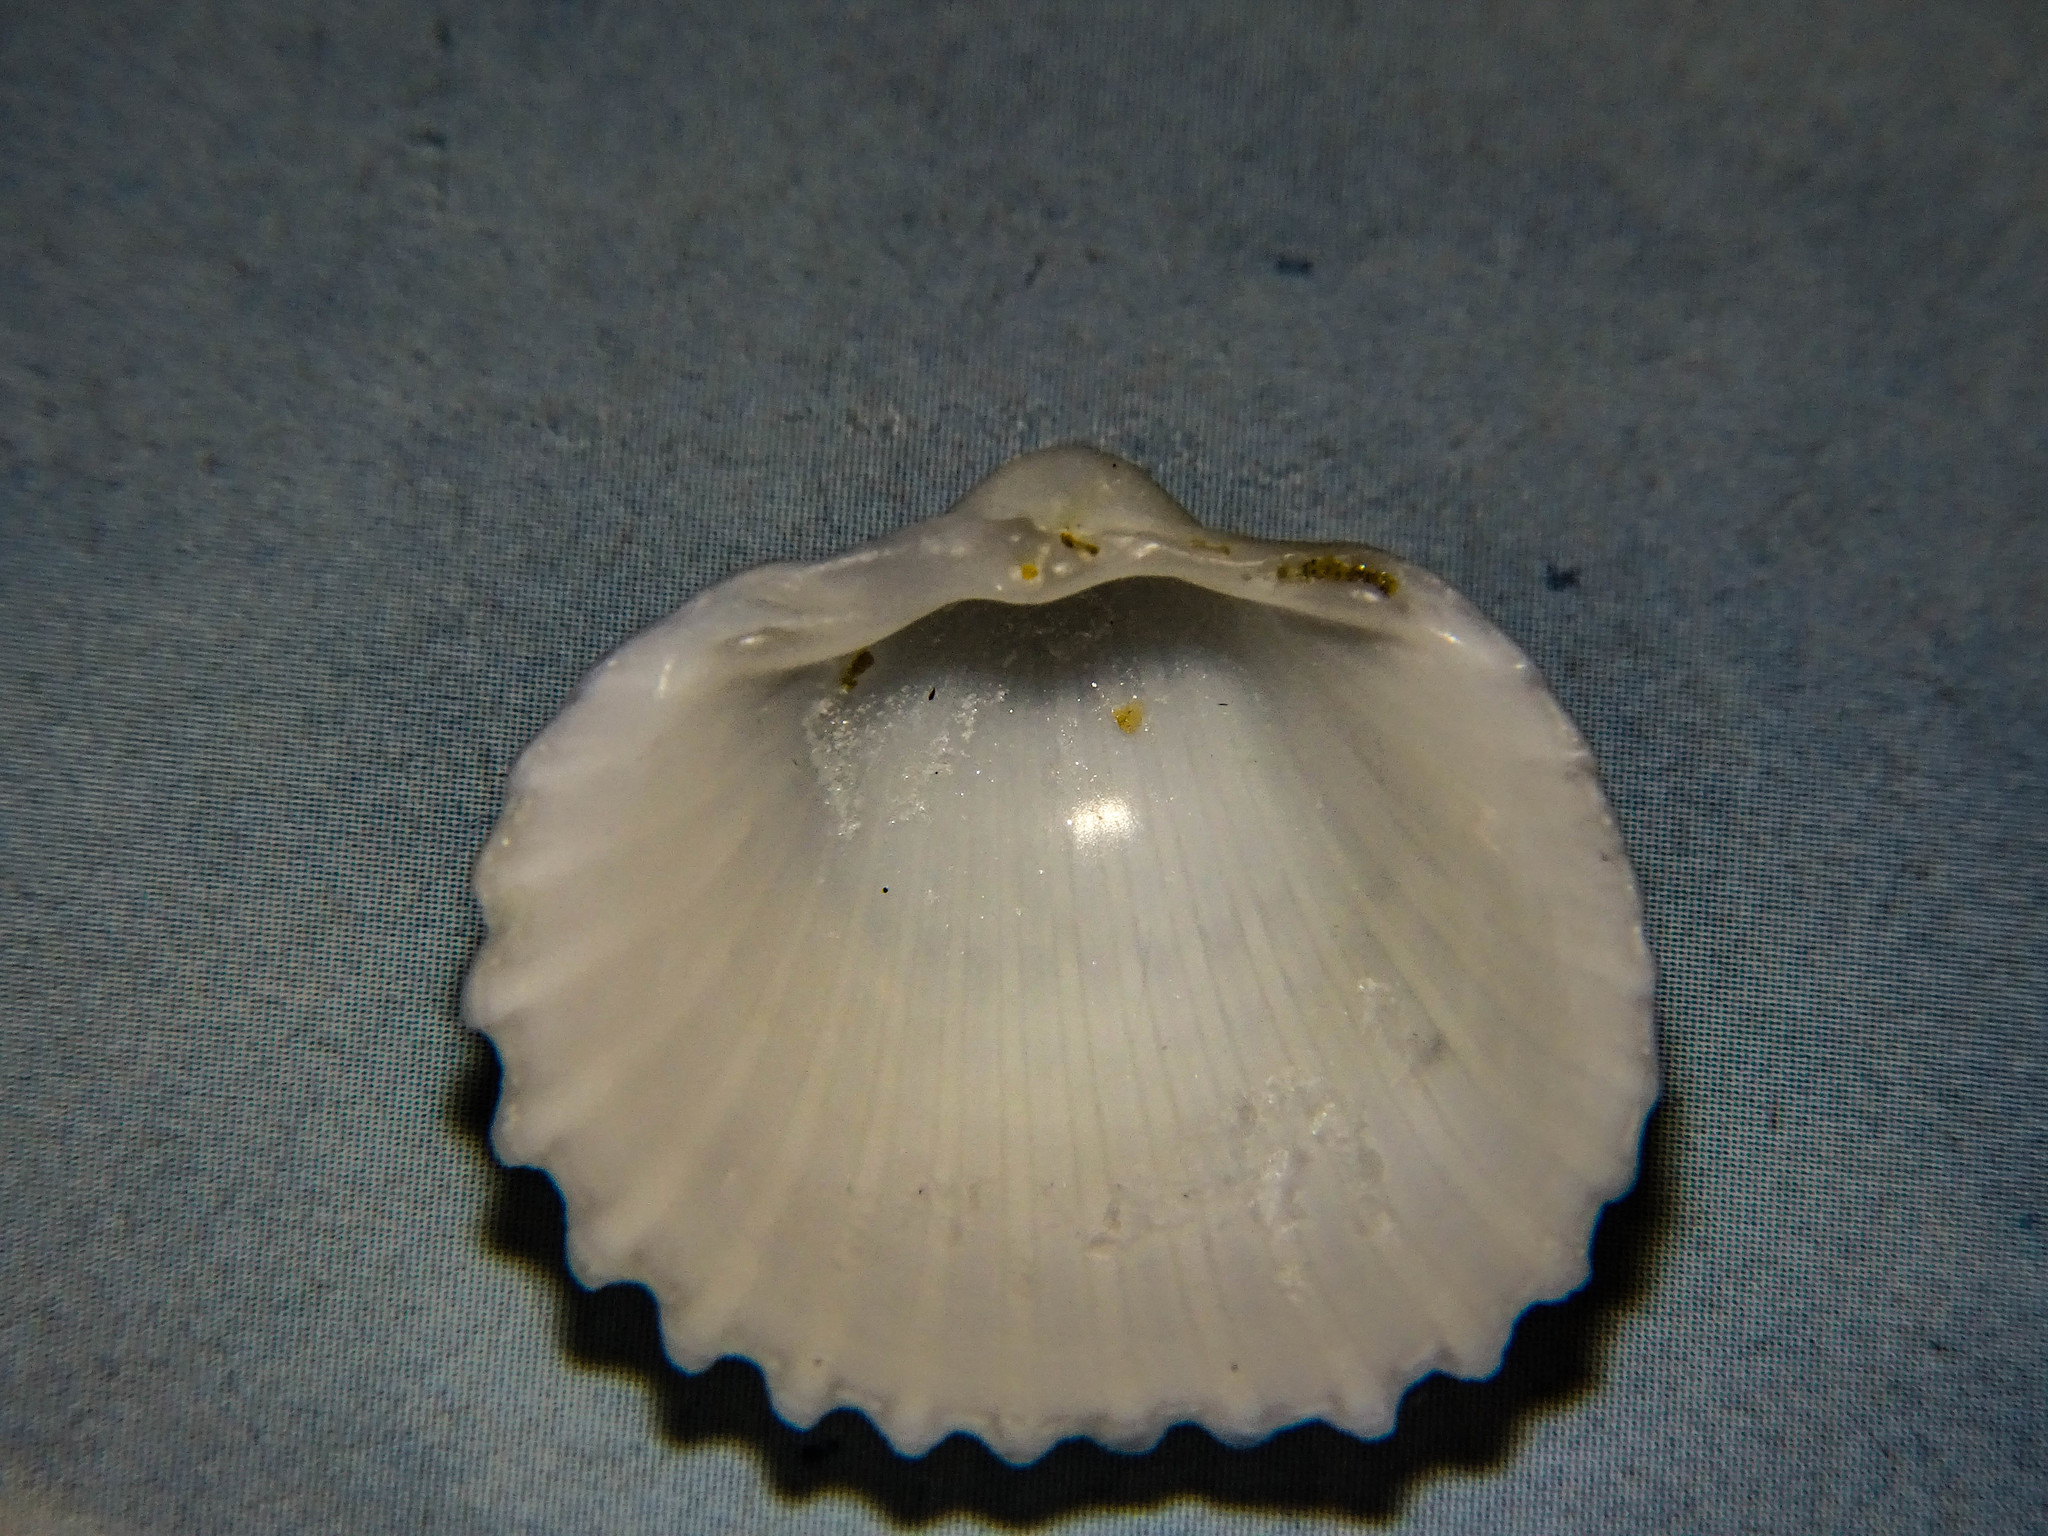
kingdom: Animalia
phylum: Mollusca
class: Bivalvia
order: Cardiida
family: Cardiidae
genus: Acanthocardia
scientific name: Acanthocardia tuberculata
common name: Rough cockle
